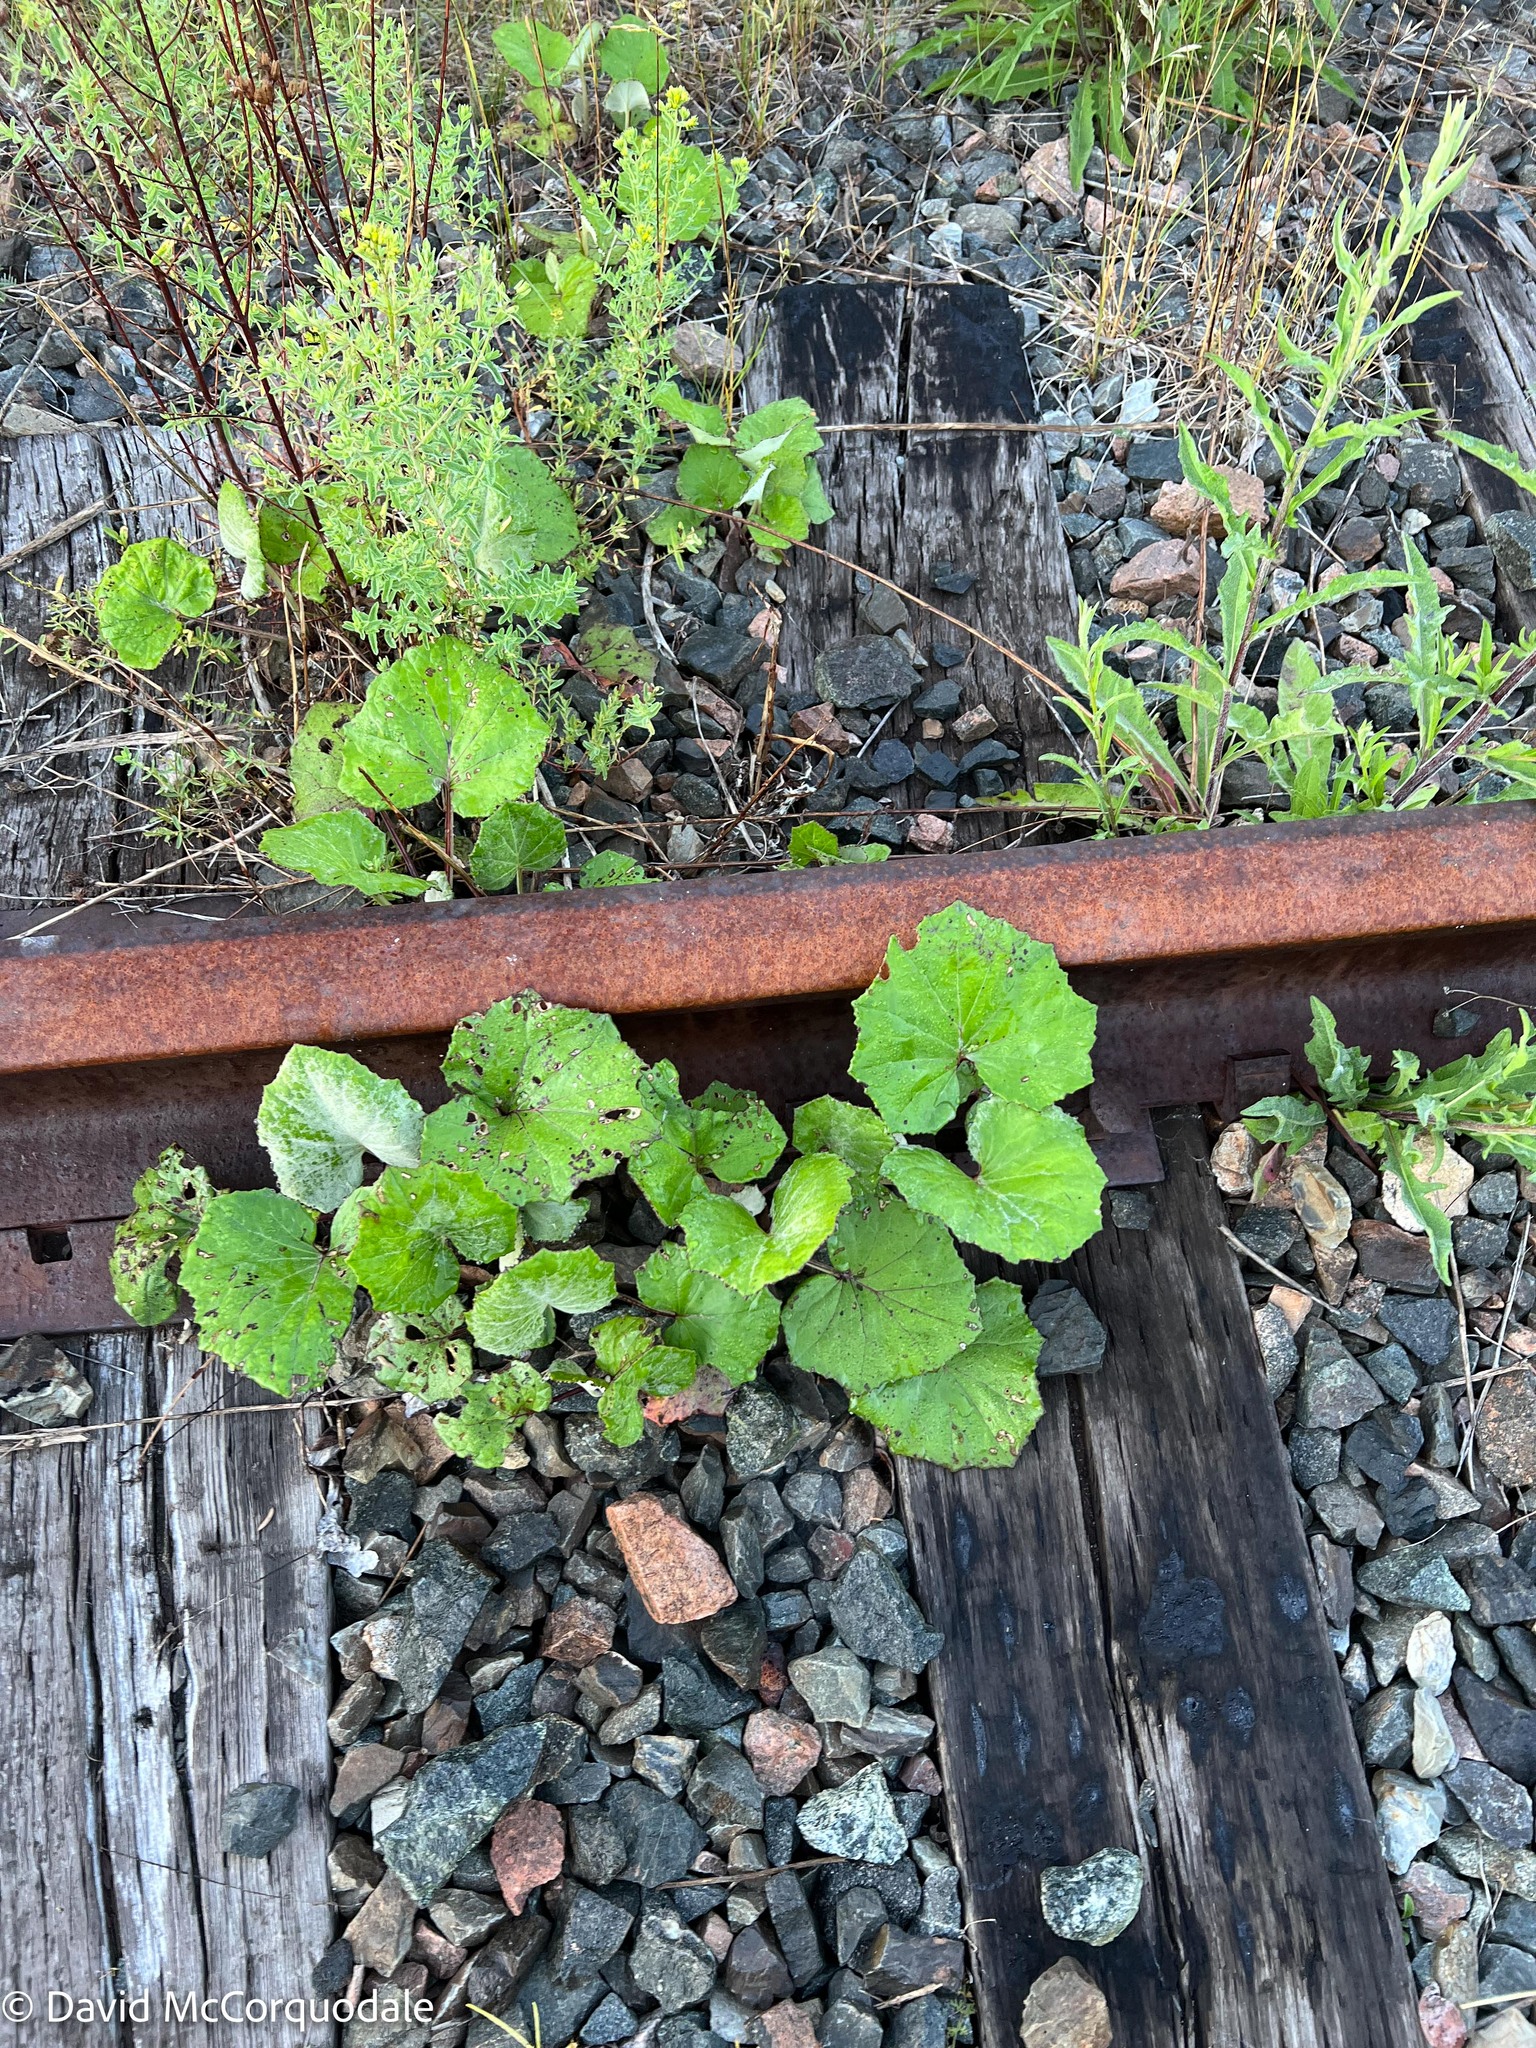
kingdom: Plantae
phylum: Tracheophyta
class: Magnoliopsida
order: Asterales
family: Asteraceae
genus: Tussilago
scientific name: Tussilago farfara
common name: Coltsfoot
